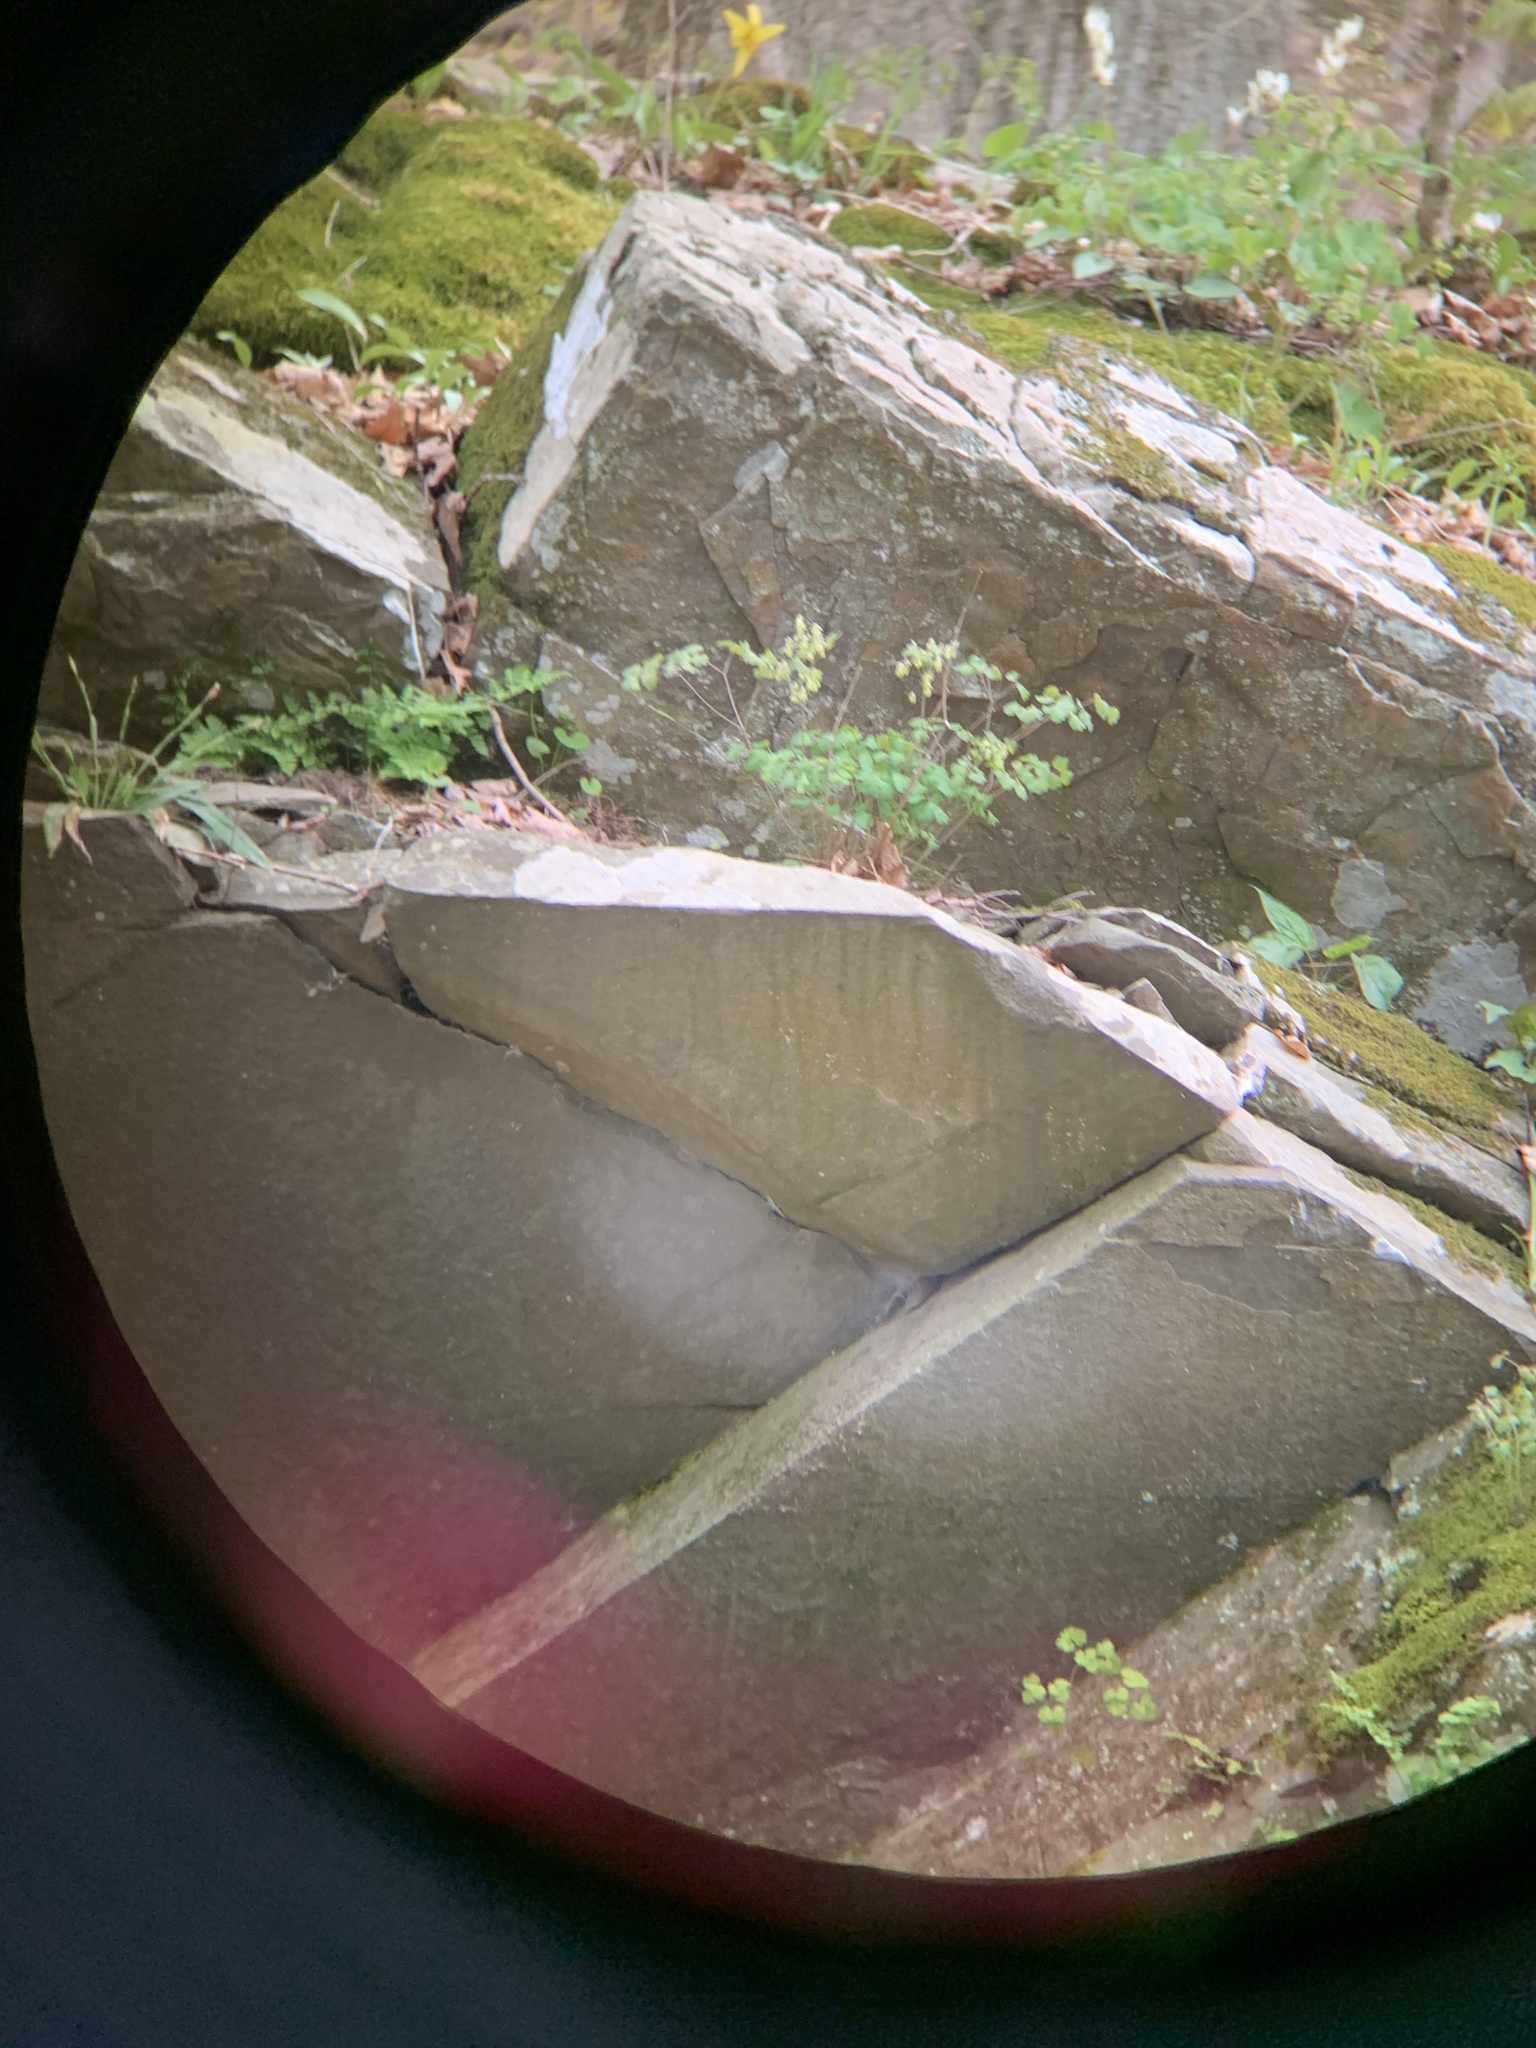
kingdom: Plantae
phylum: Tracheophyta
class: Magnoliopsida
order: Ranunculales
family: Ranunculaceae
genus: Thalictrum
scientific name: Thalictrum dioicum
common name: Early meadow-rue
